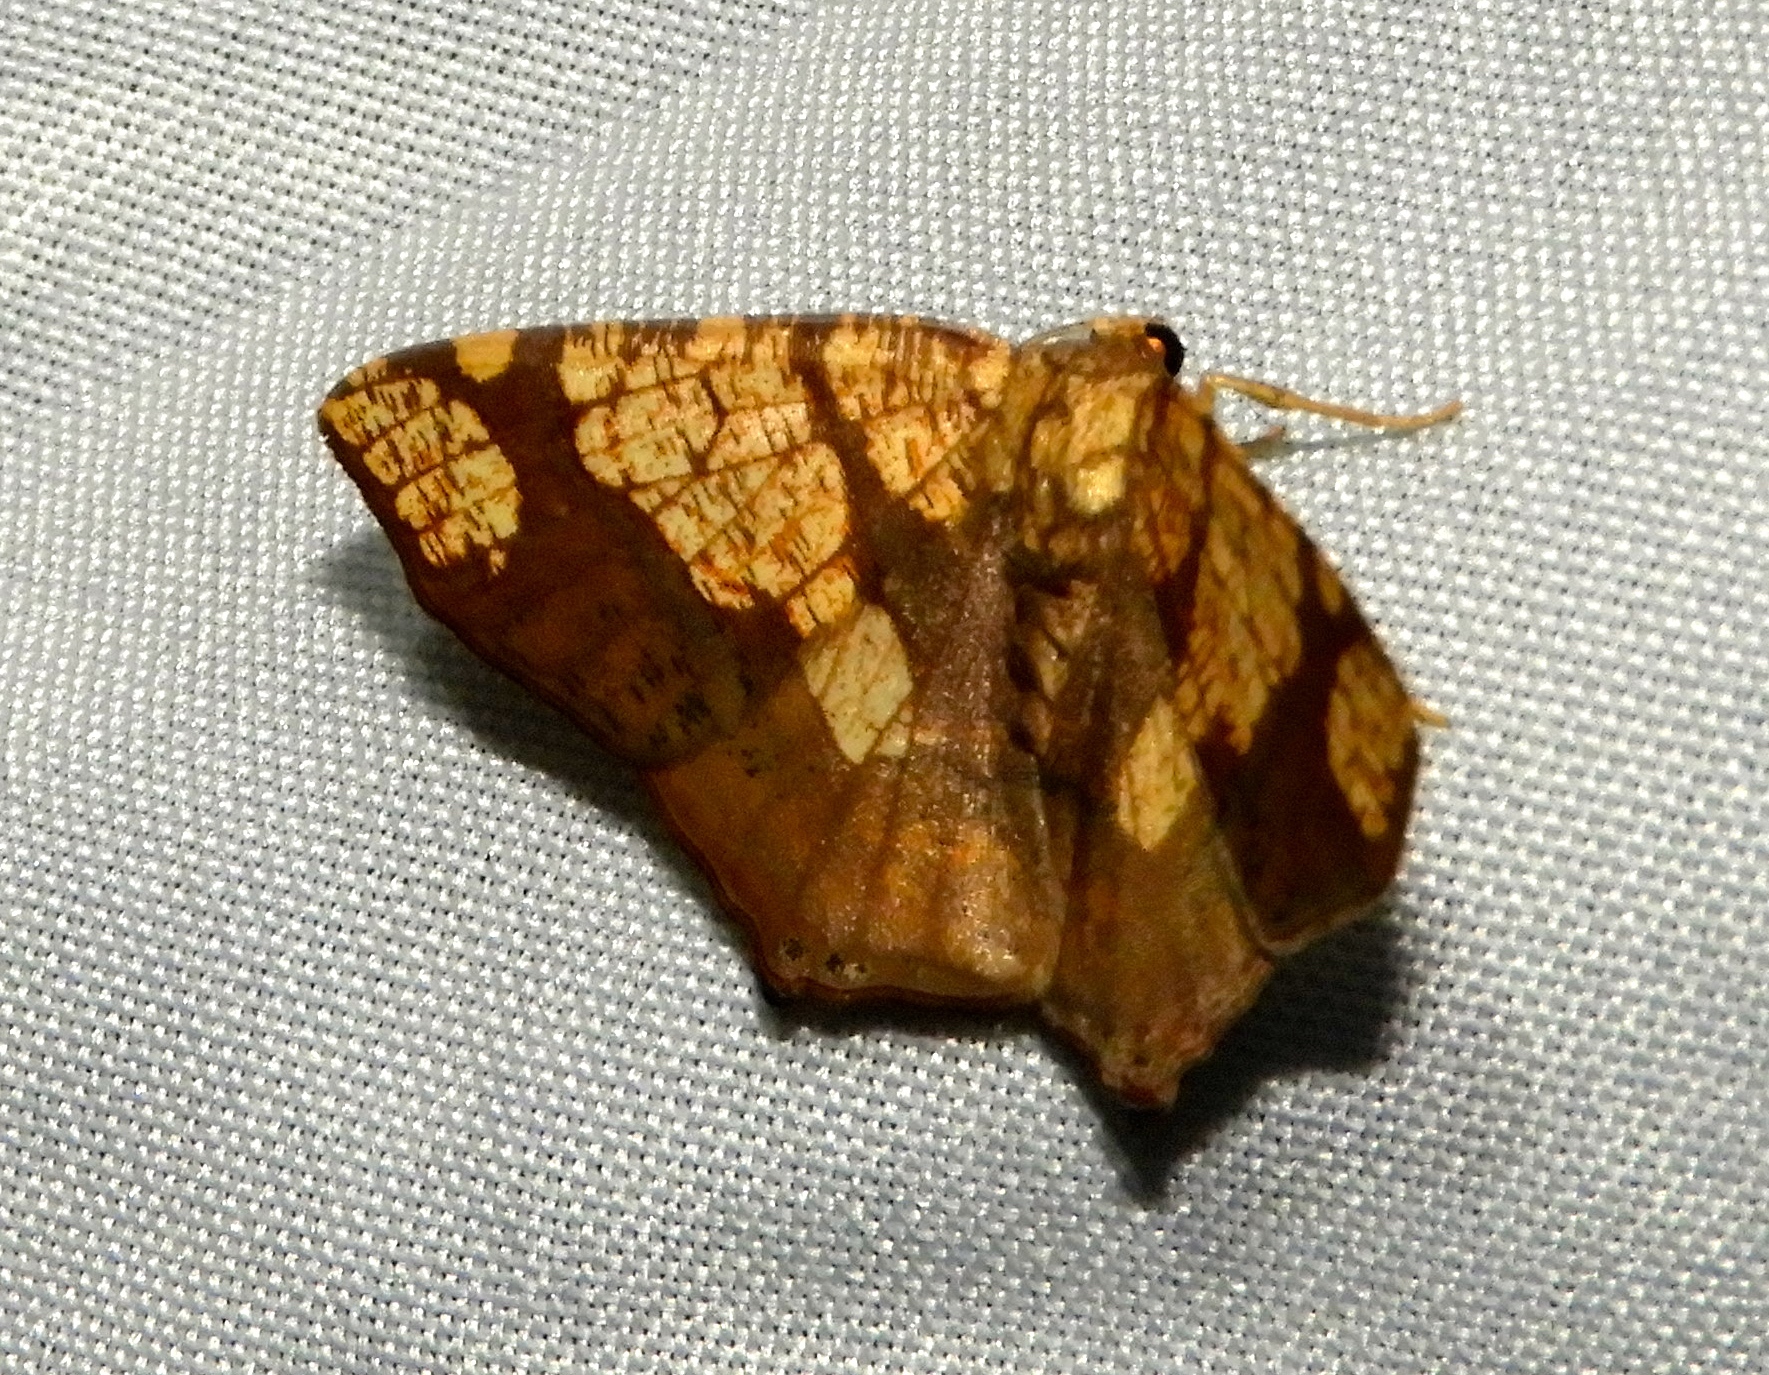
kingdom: Animalia
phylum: Arthropoda
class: Insecta
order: Lepidoptera
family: Geometridae
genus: Nematocampa
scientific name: Nematocampa completa
